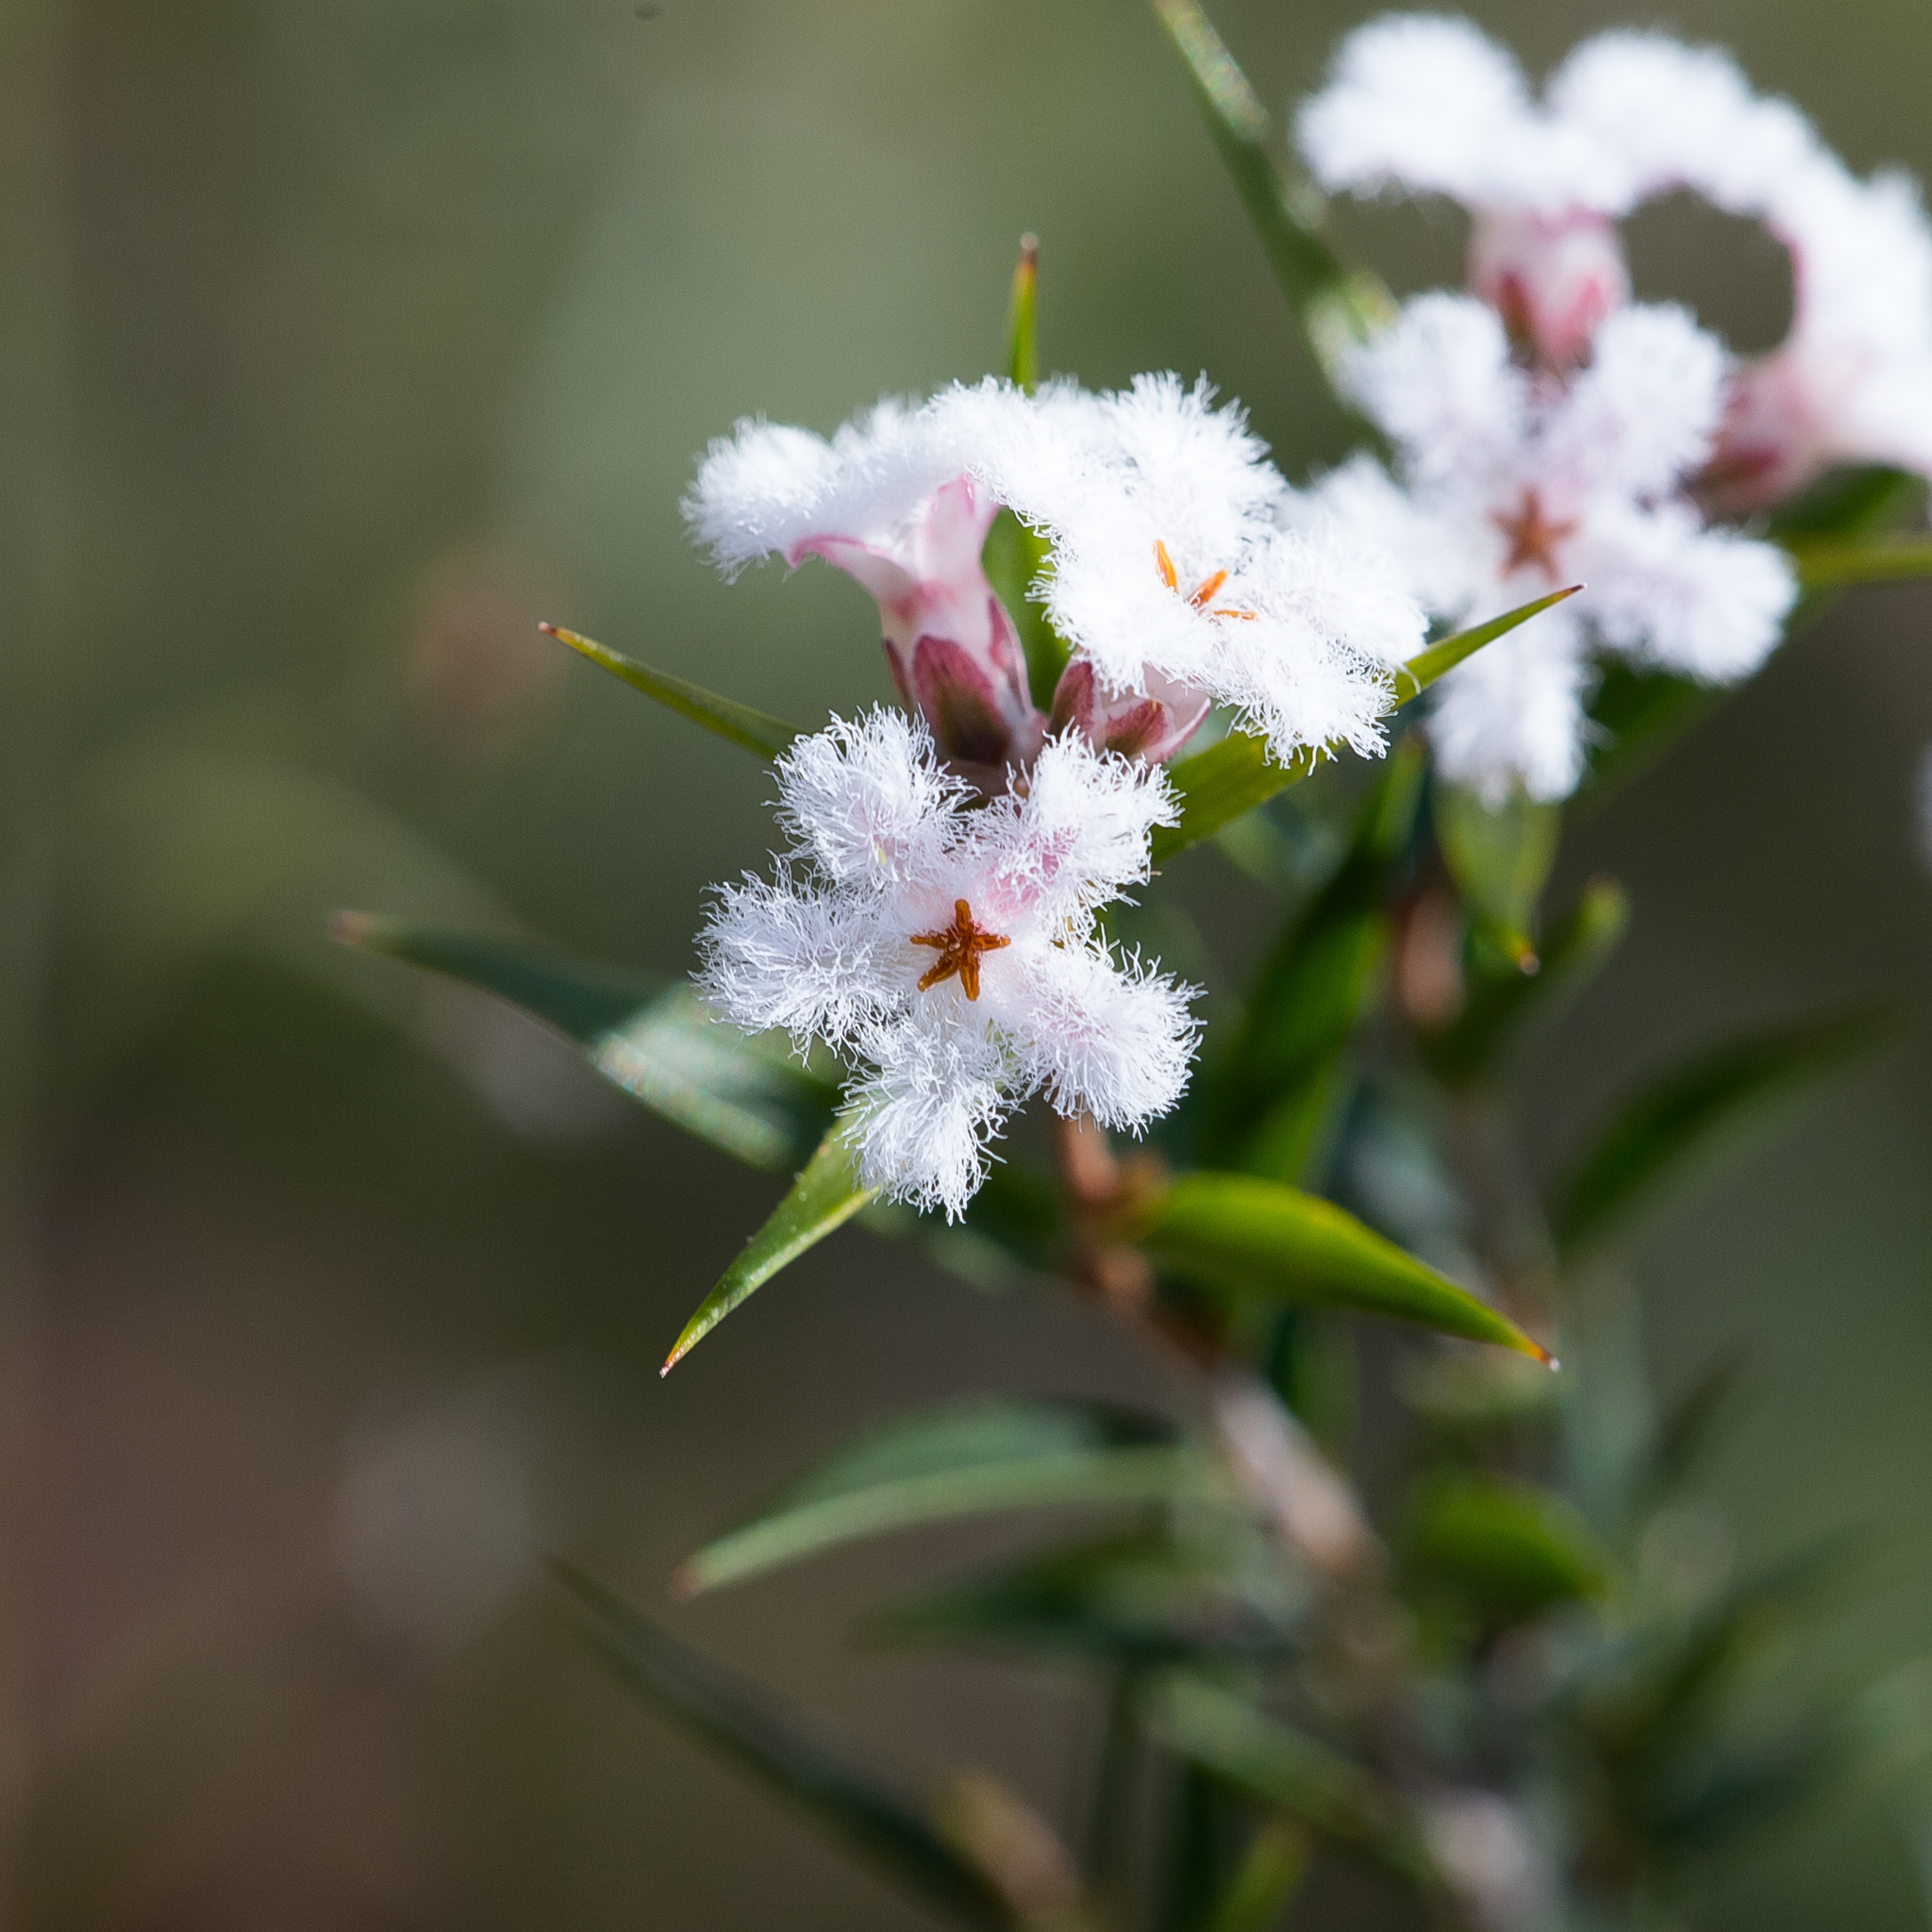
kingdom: Plantae
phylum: Tracheophyta
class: Magnoliopsida
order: Ericales
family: Ericaceae
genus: Leucopogon
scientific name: Leucopogon virgatus
